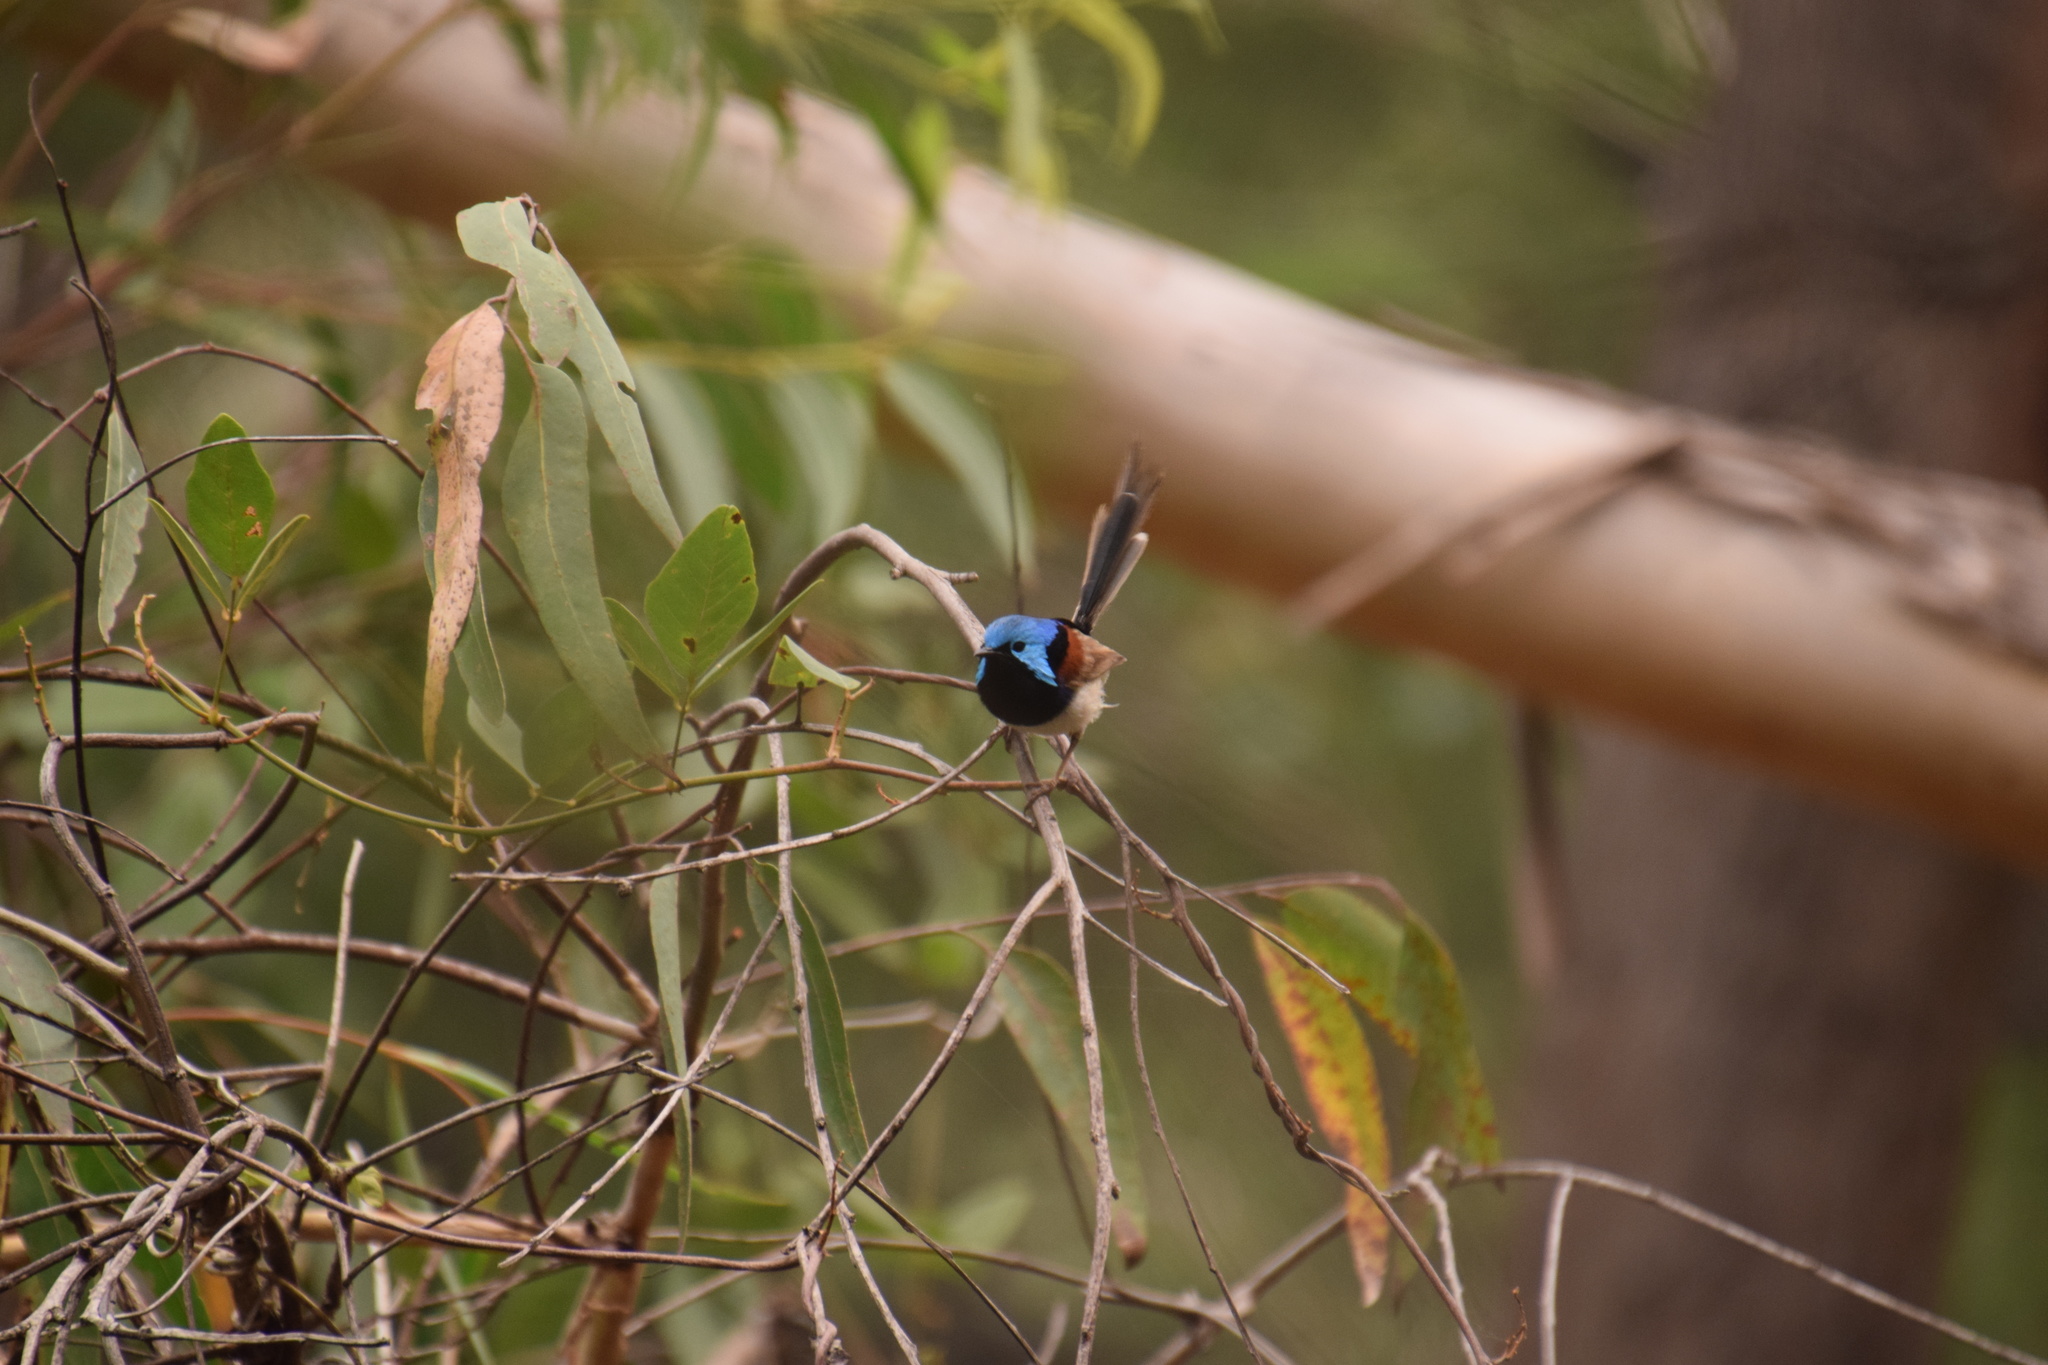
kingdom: Animalia
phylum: Chordata
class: Aves
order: Passeriformes
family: Maluridae
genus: Malurus
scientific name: Malurus lamberti
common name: Variegated fairywren
